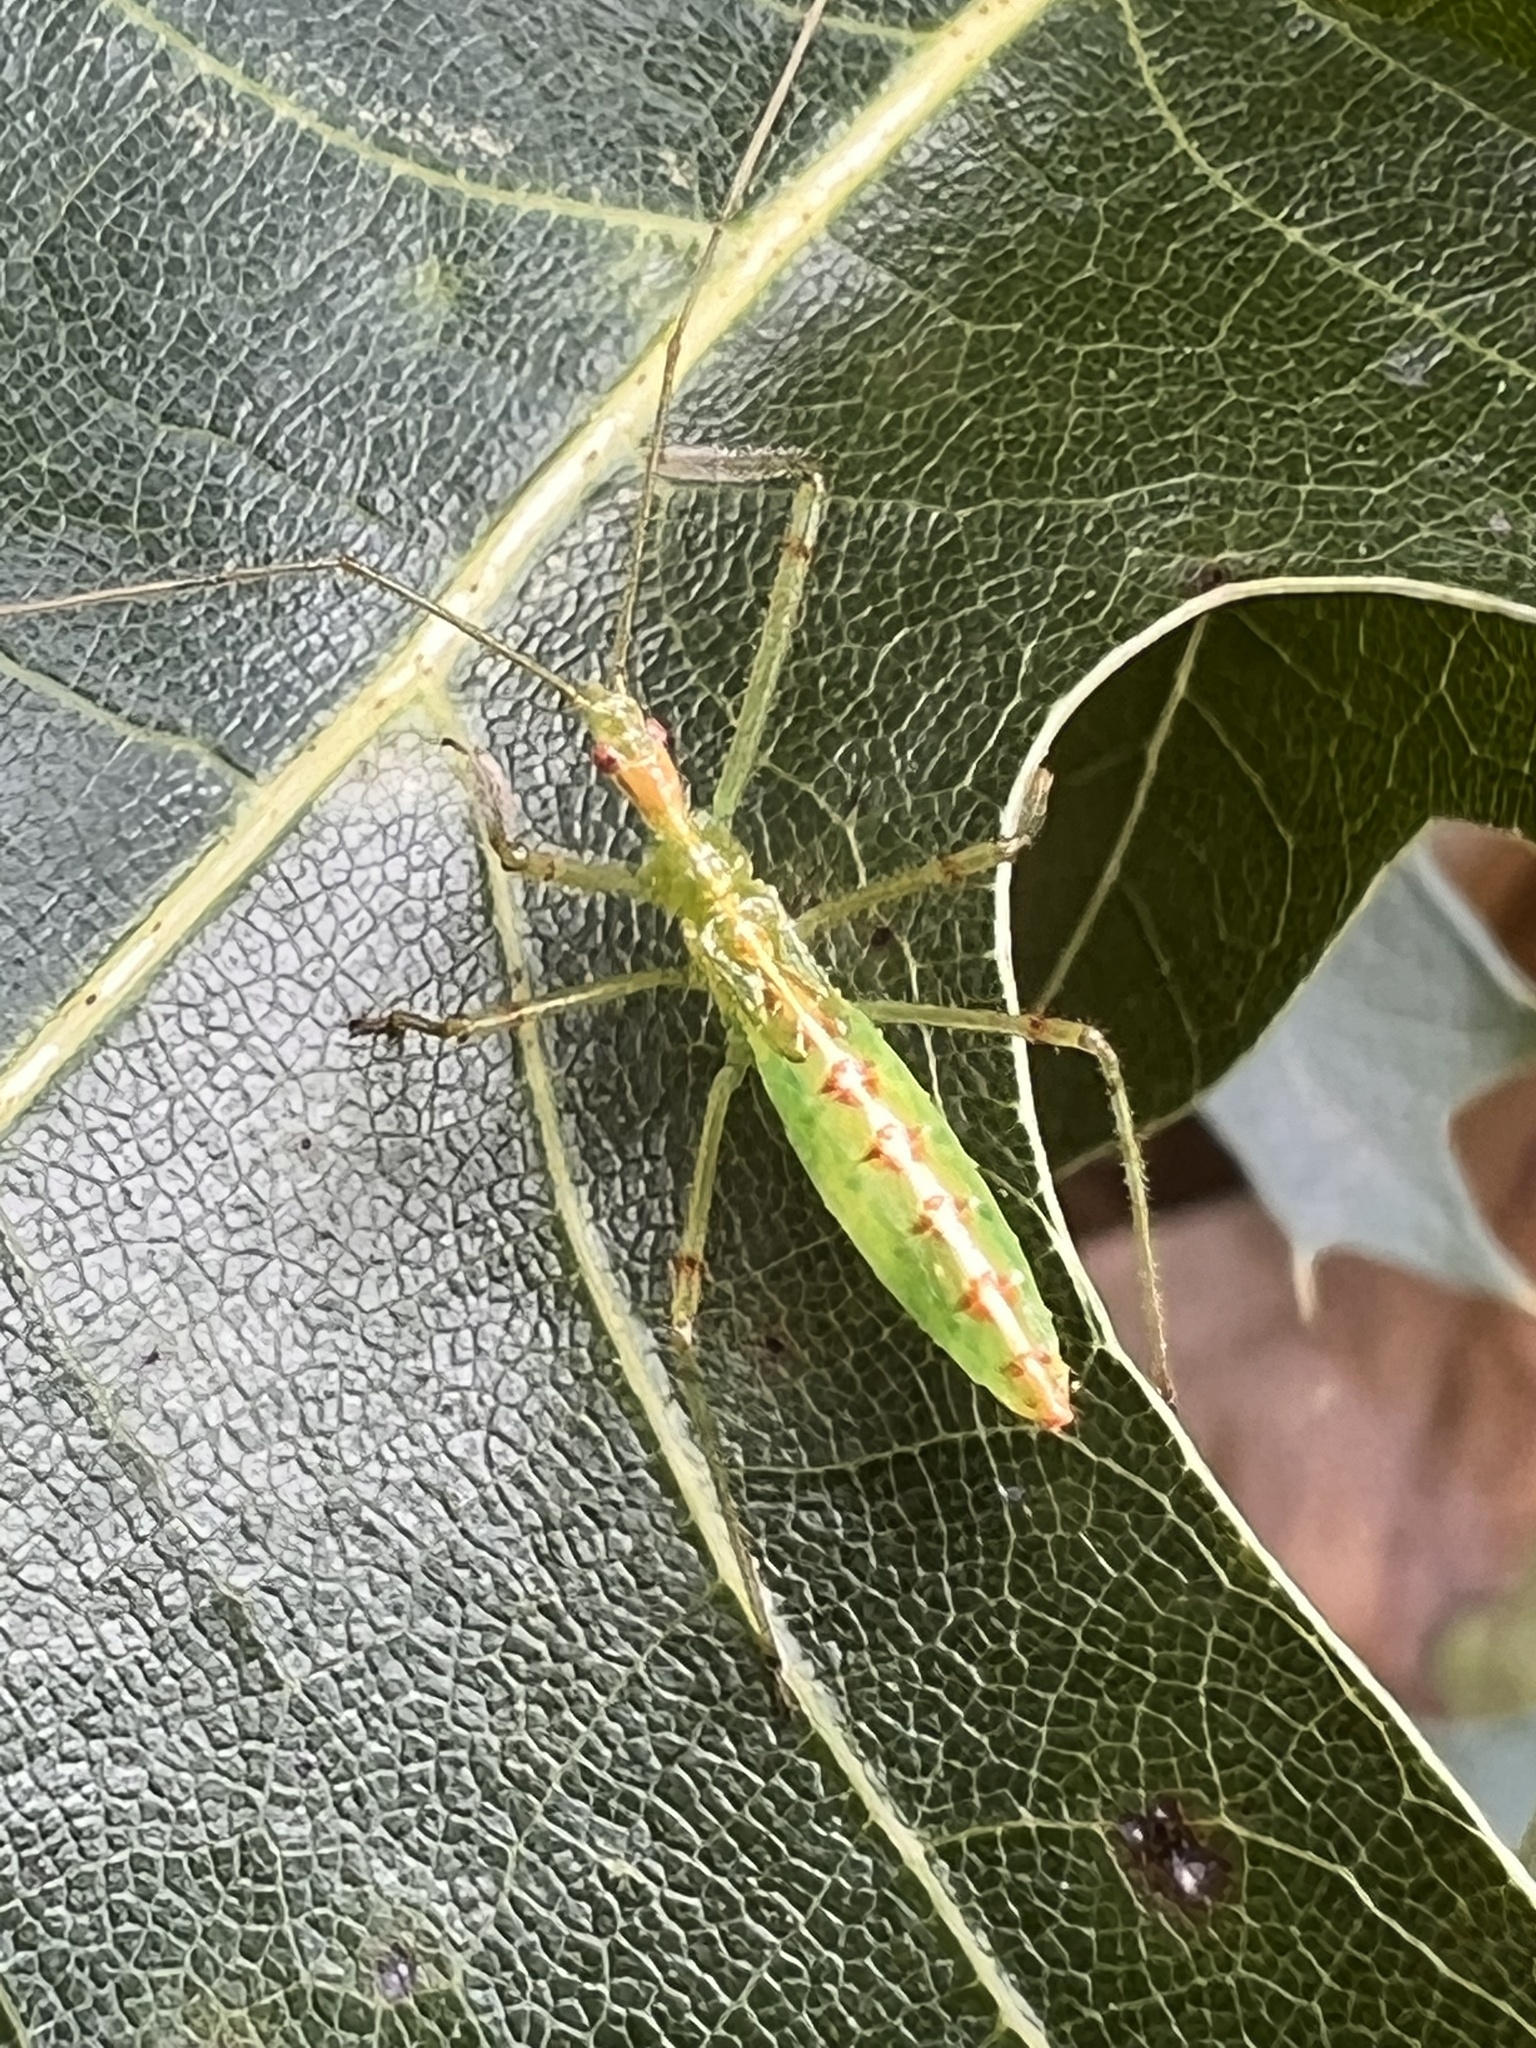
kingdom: Animalia
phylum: Arthropoda
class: Insecta
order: Hemiptera
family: Reduviidae
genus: Zelus
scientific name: Zelus luridus
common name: Pale green assassin bug
